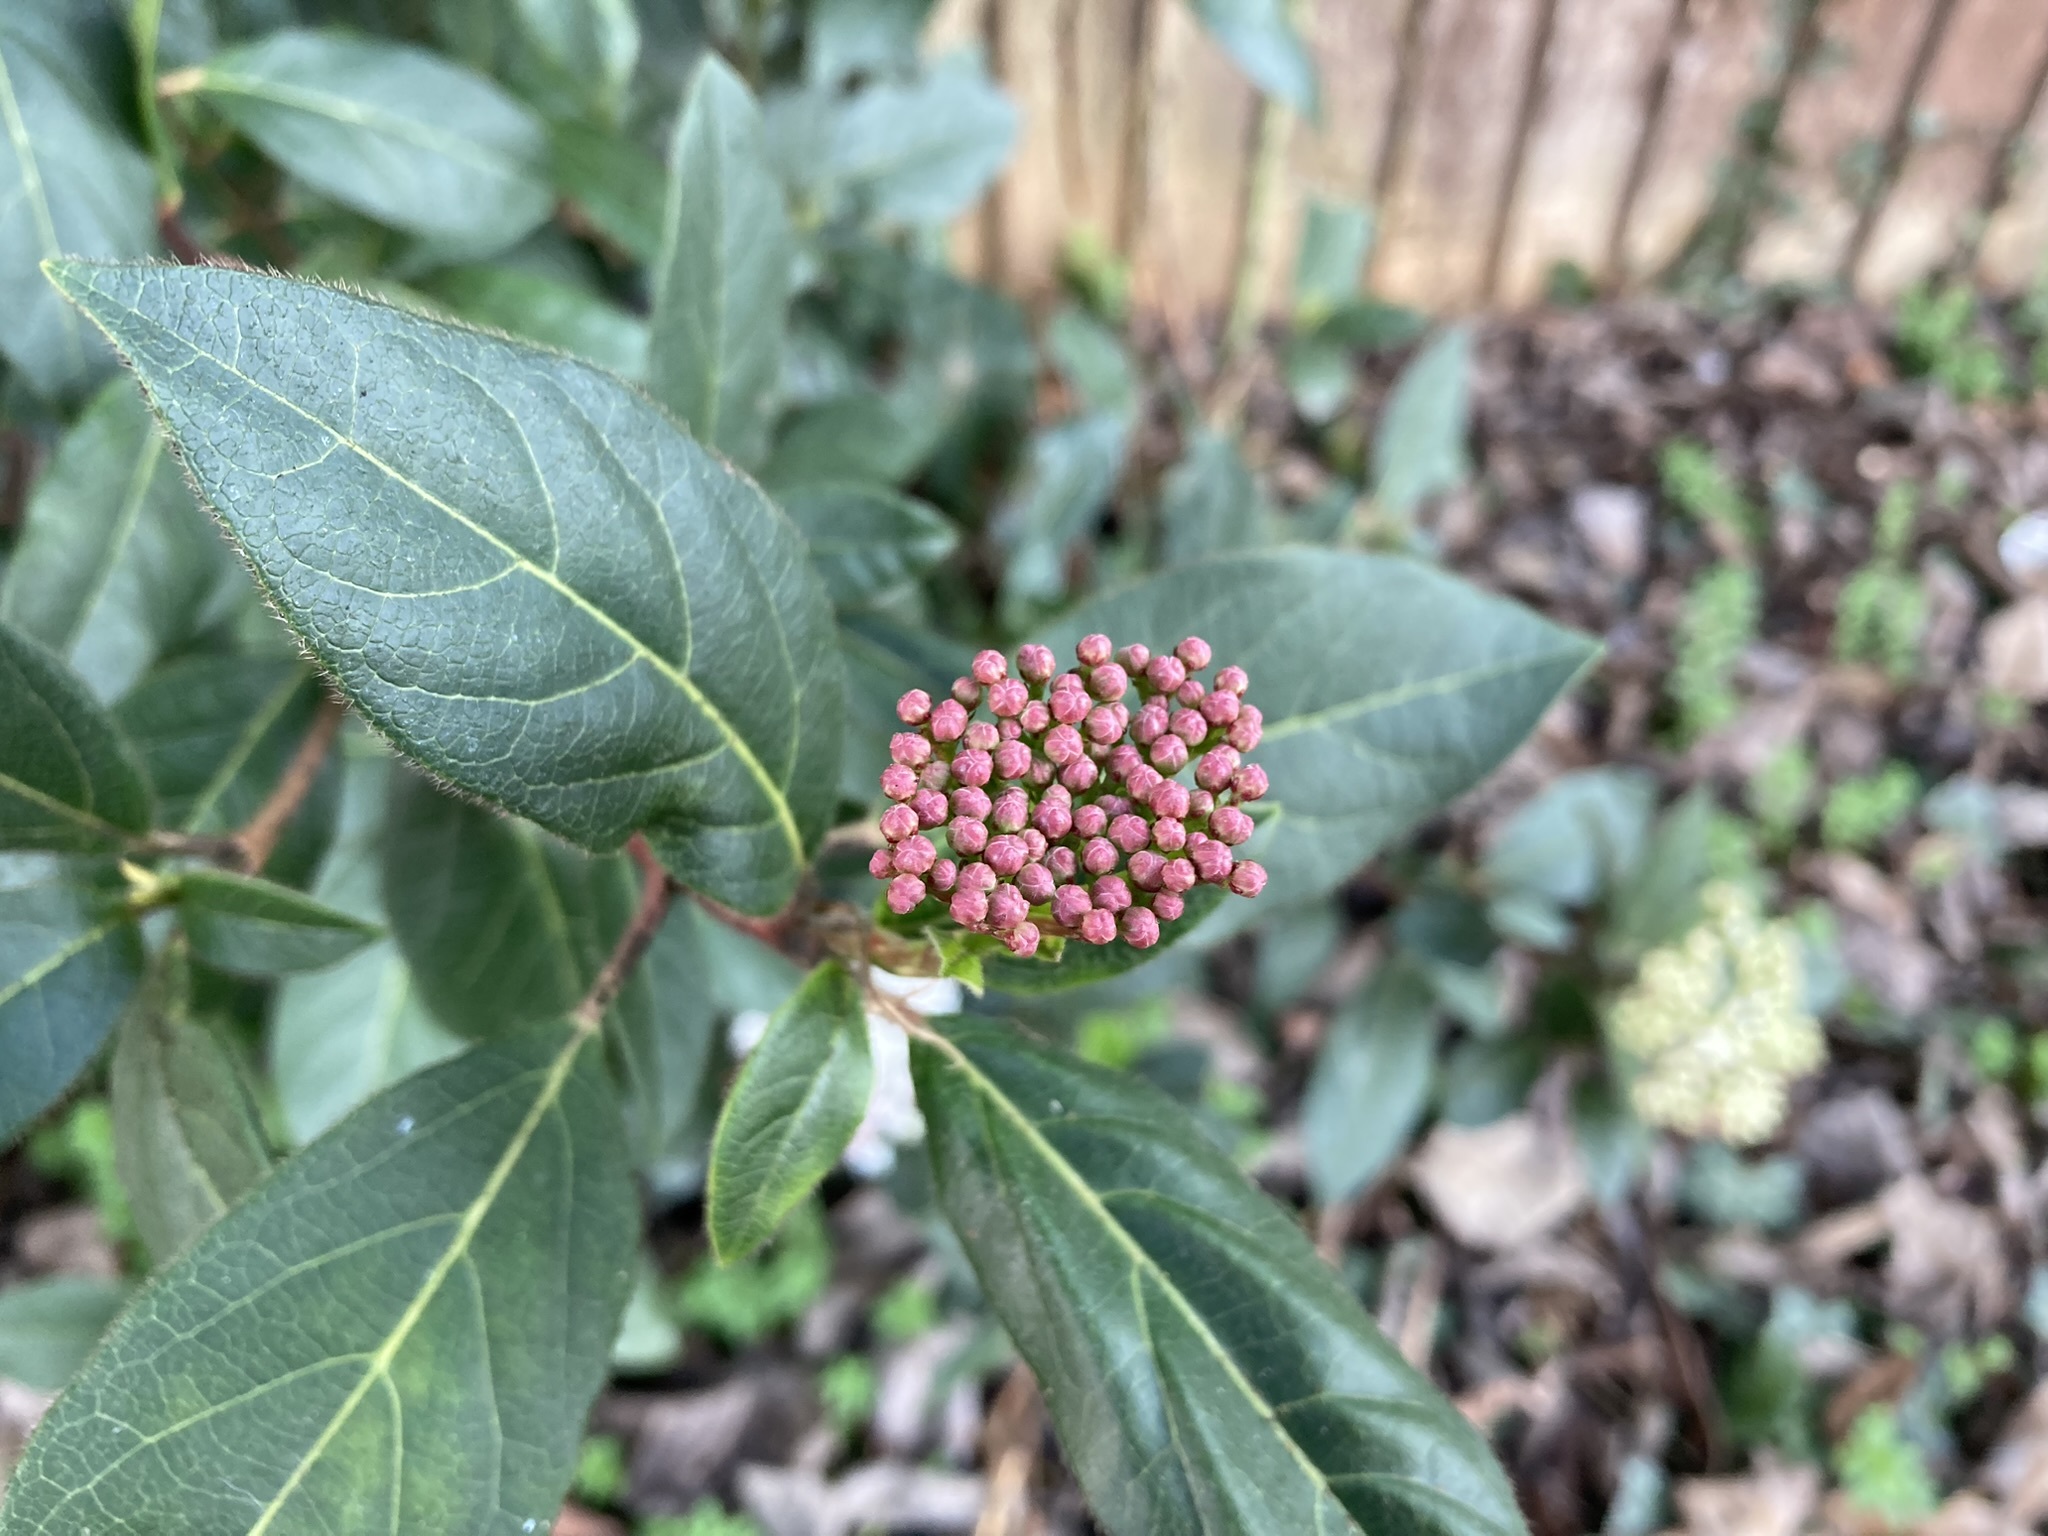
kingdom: Plantae
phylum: Tracheophyta
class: Magnoliopsida
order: Dipsacales
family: Viburnaceae
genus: Viburnum
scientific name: Viburnum tinus
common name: Laurustinus
